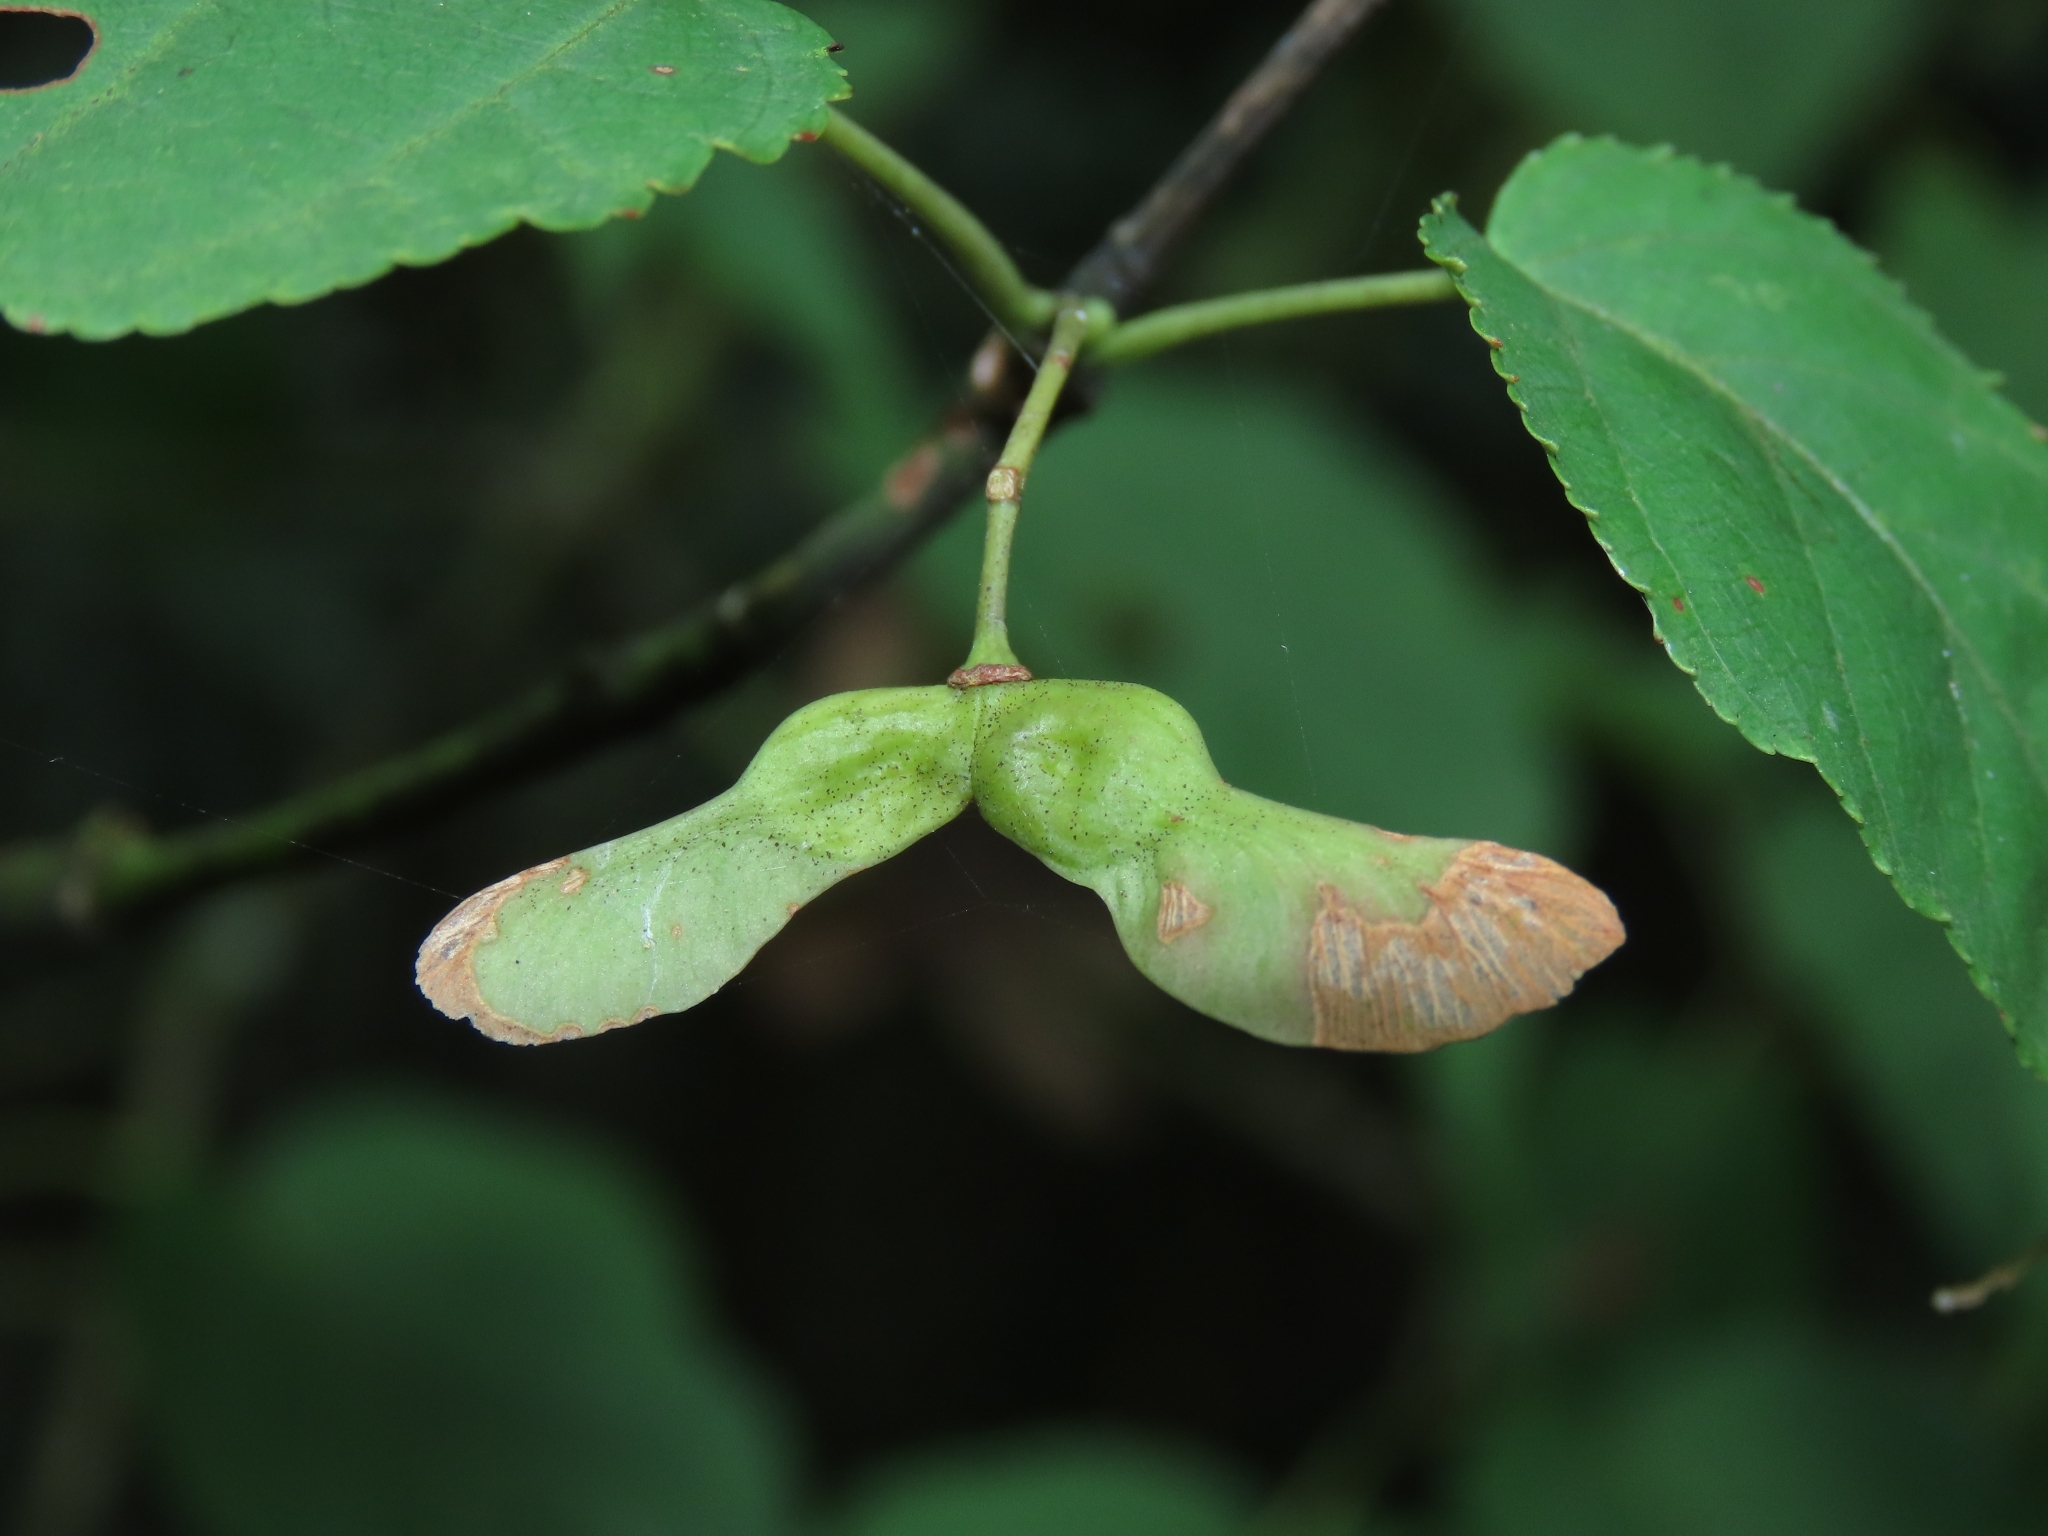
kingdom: Plantae
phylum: Tracheophyta
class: Magnoliopsida
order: Sapindales
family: Sapindaceae
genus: Acer
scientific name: Acer caudatifolium
